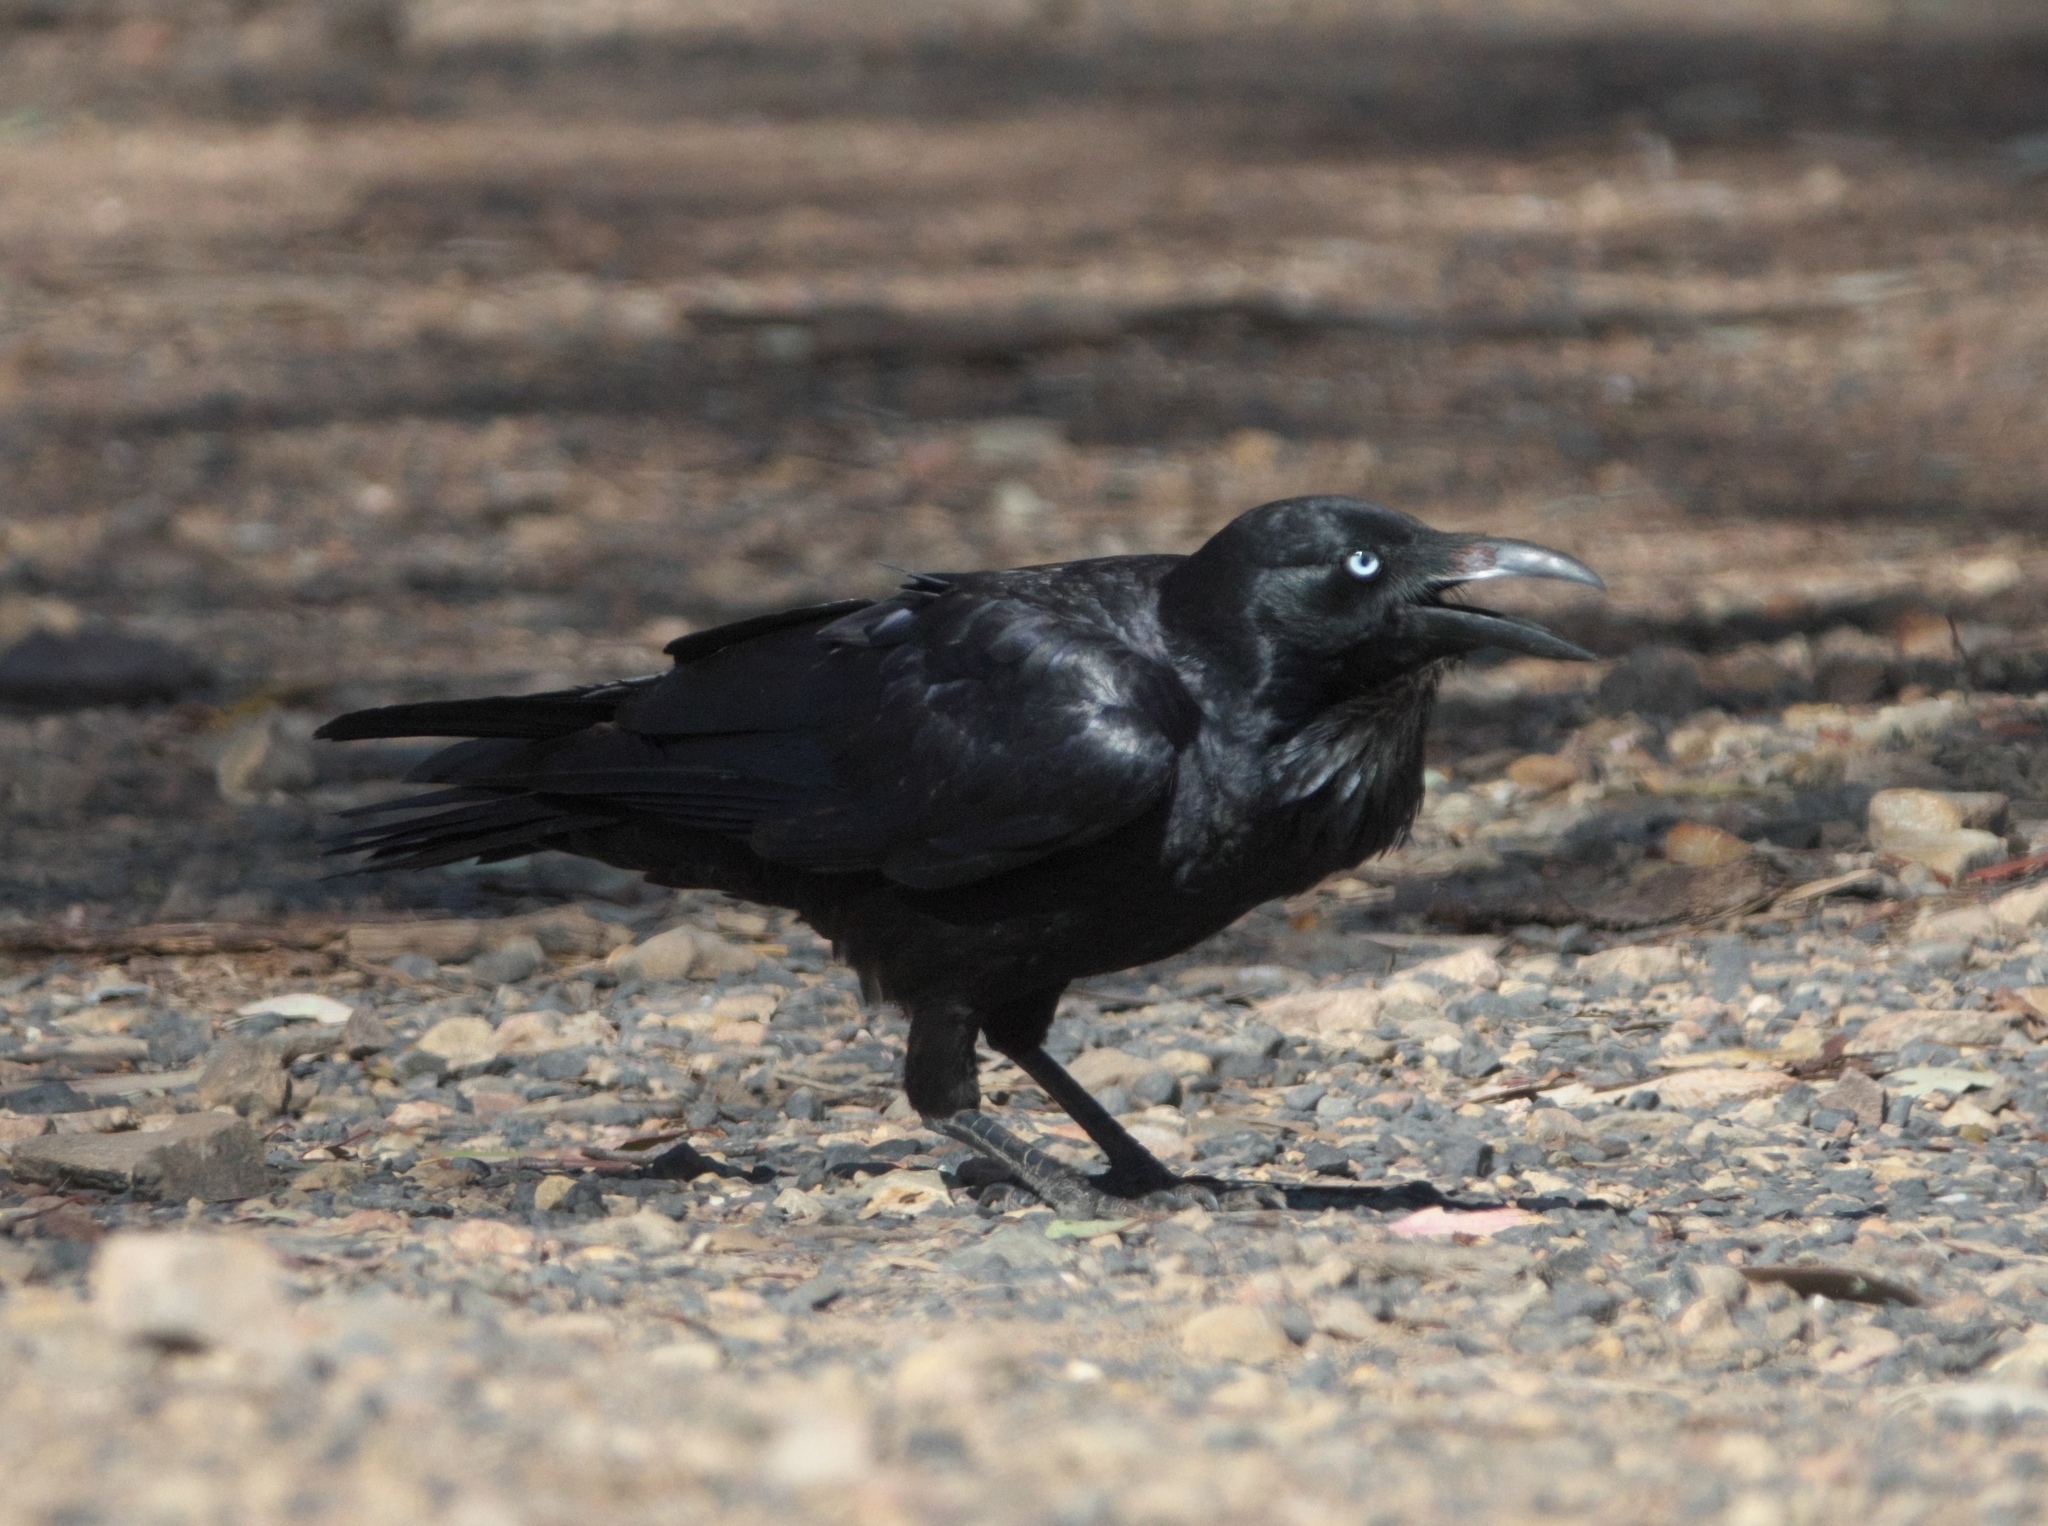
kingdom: Animalia
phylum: Chordata
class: Aves
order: Passeriformes
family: Corvidae
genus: Corvus
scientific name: Corvus coronoides
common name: Australian raven
